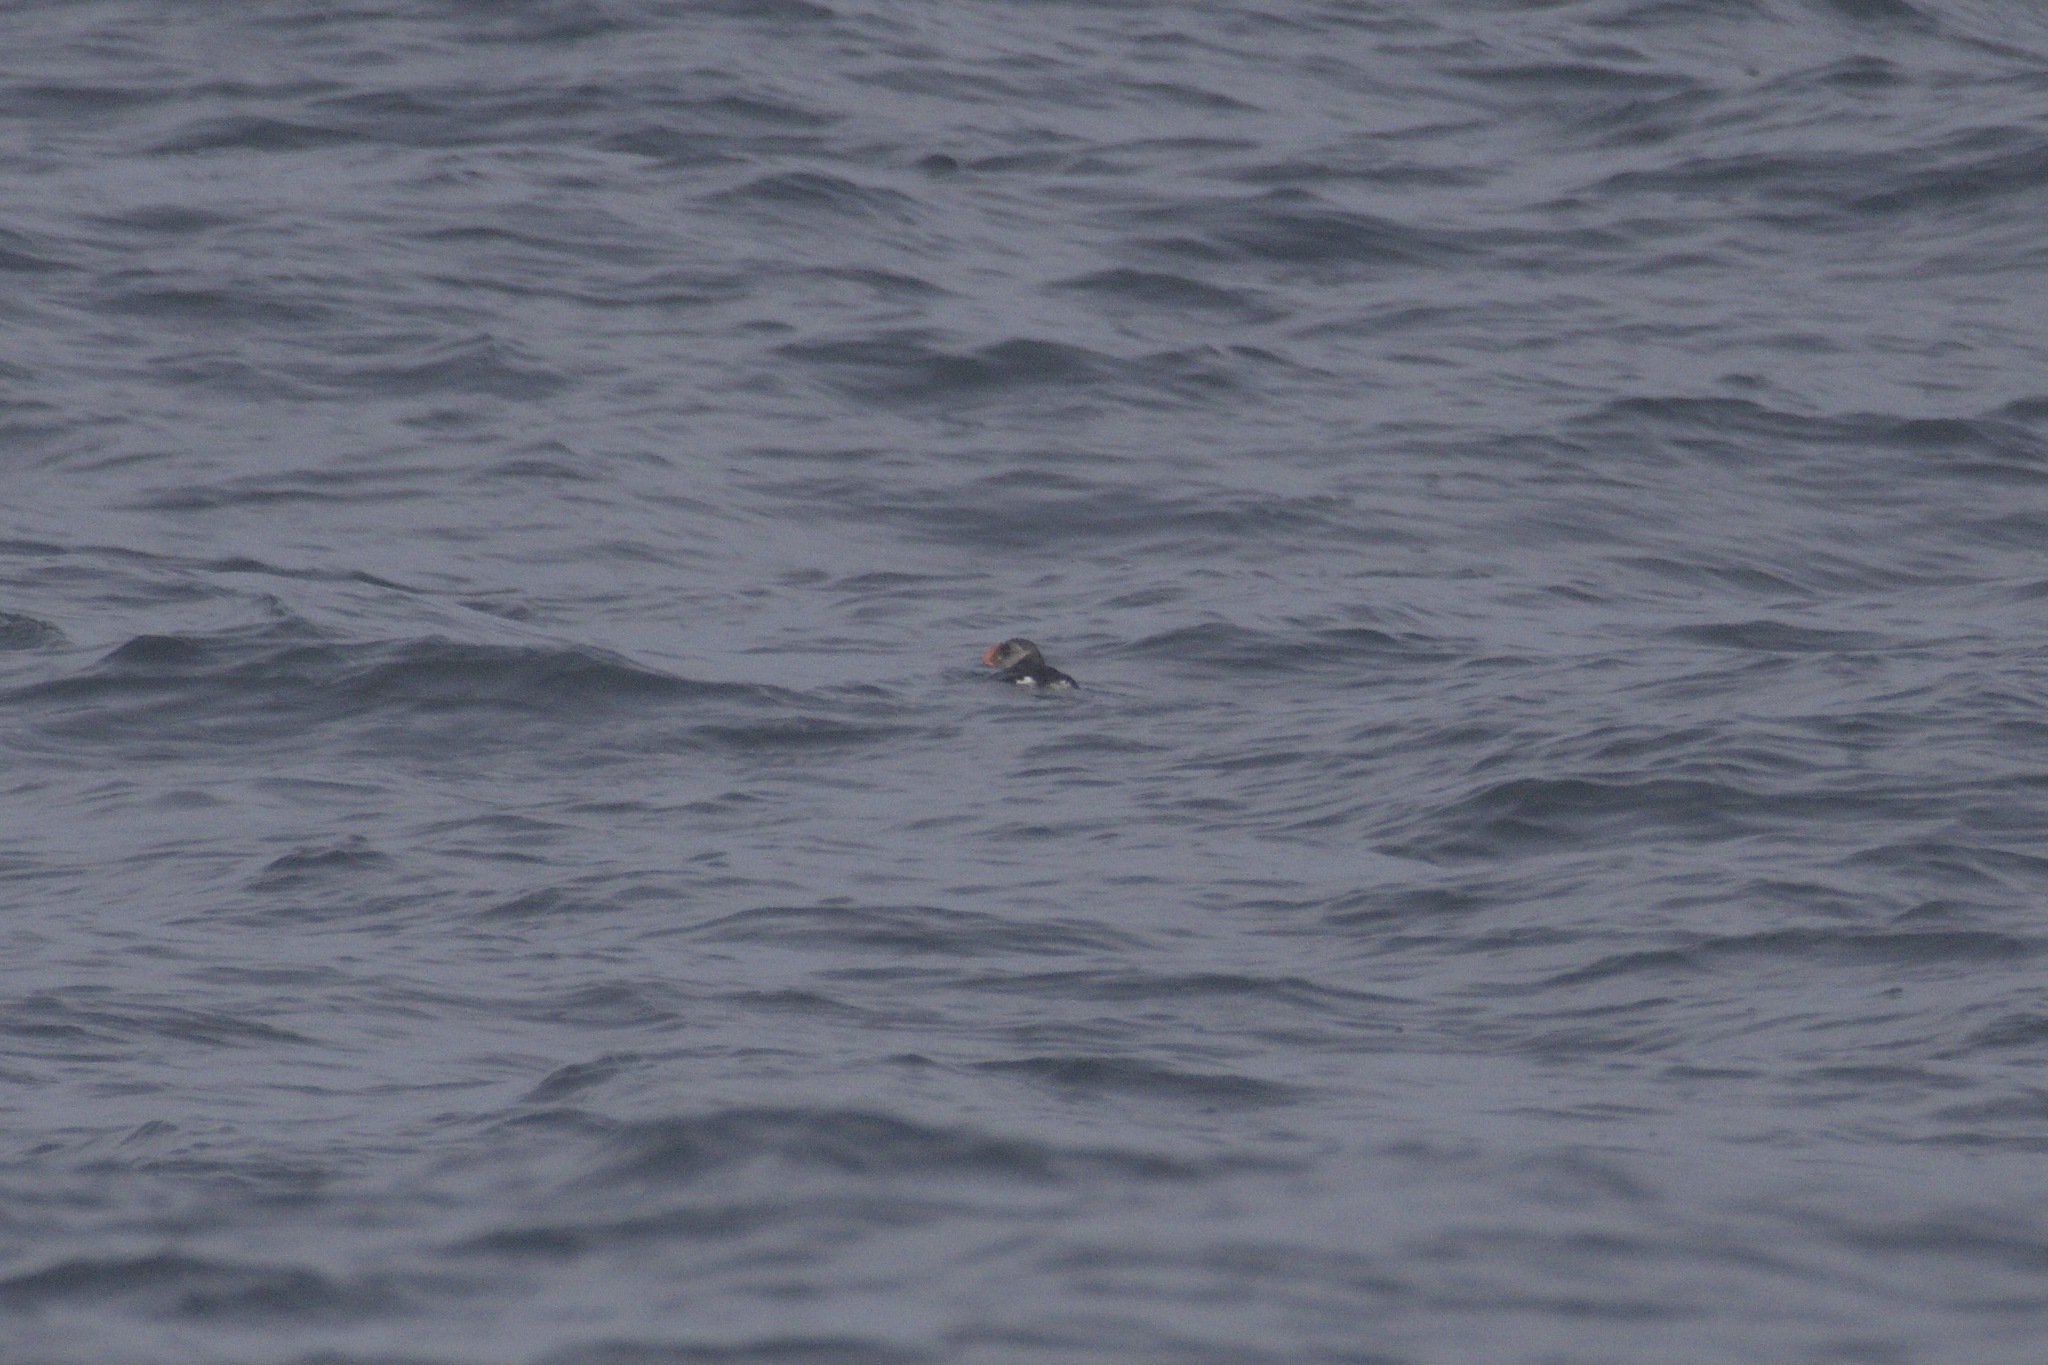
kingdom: Animalia
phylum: Chordata
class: Aves
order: Charadriiformes
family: Alcidae
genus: Fratercula
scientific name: Fratercula arctica
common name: Atlantic puffin
